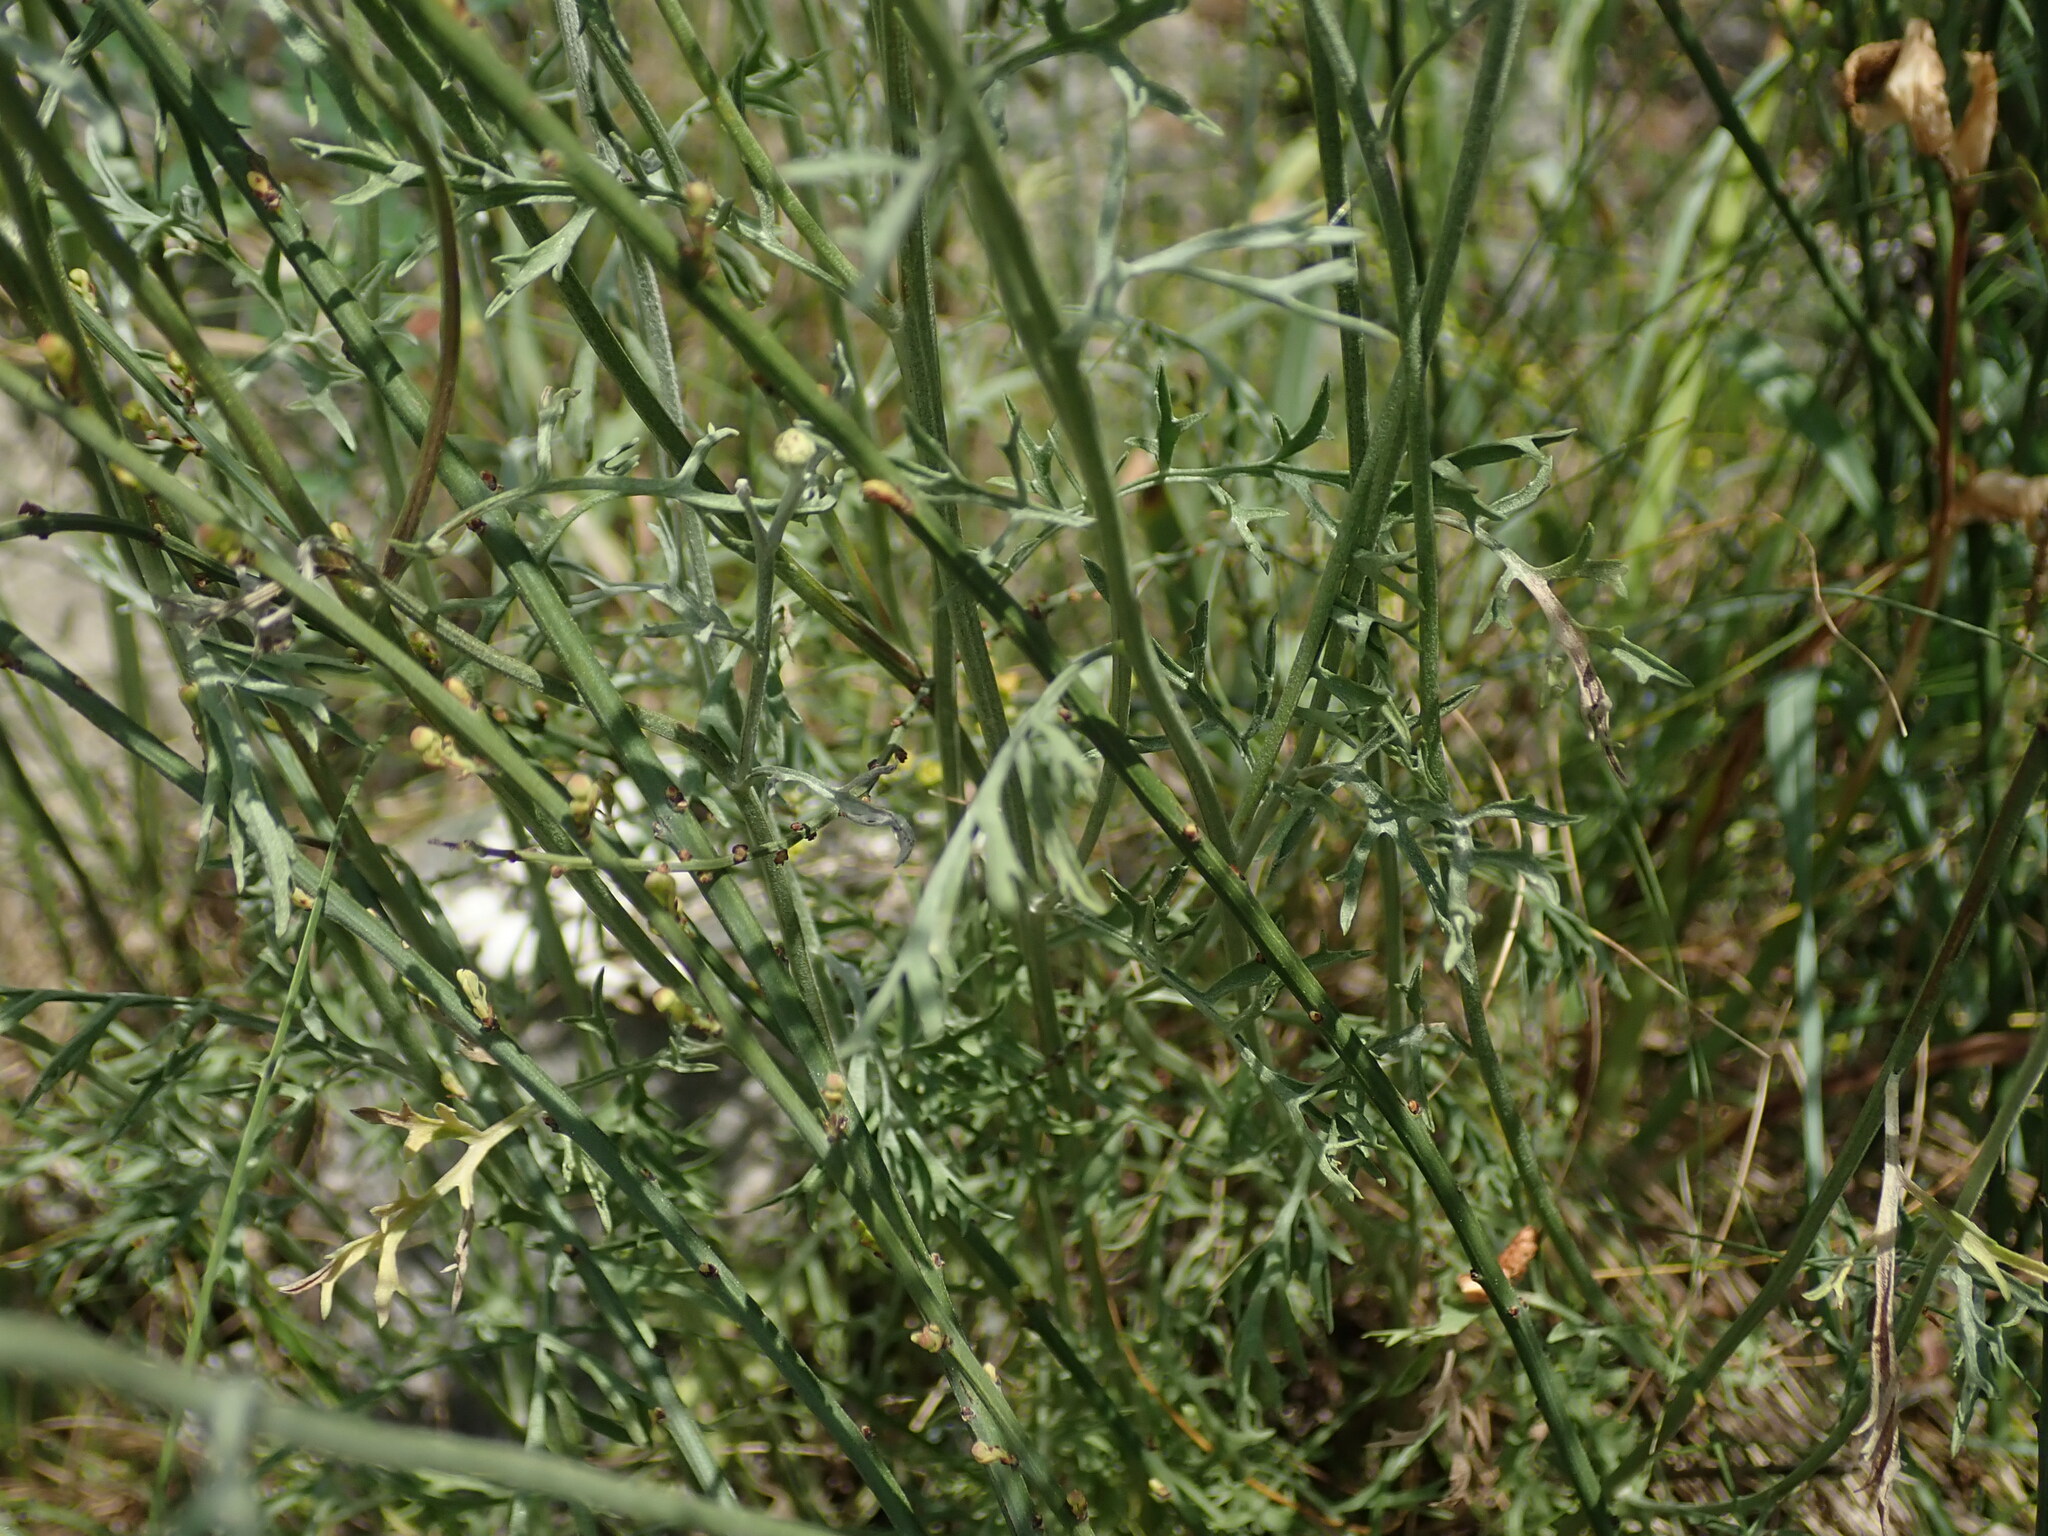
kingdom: Plantae
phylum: Tracheophyta
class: Magnoliopsida
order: Asterales
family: Asteraceae
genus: Tanacetum
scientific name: Tanacetum cinerariifolium
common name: Dalmatian pyrethrum
